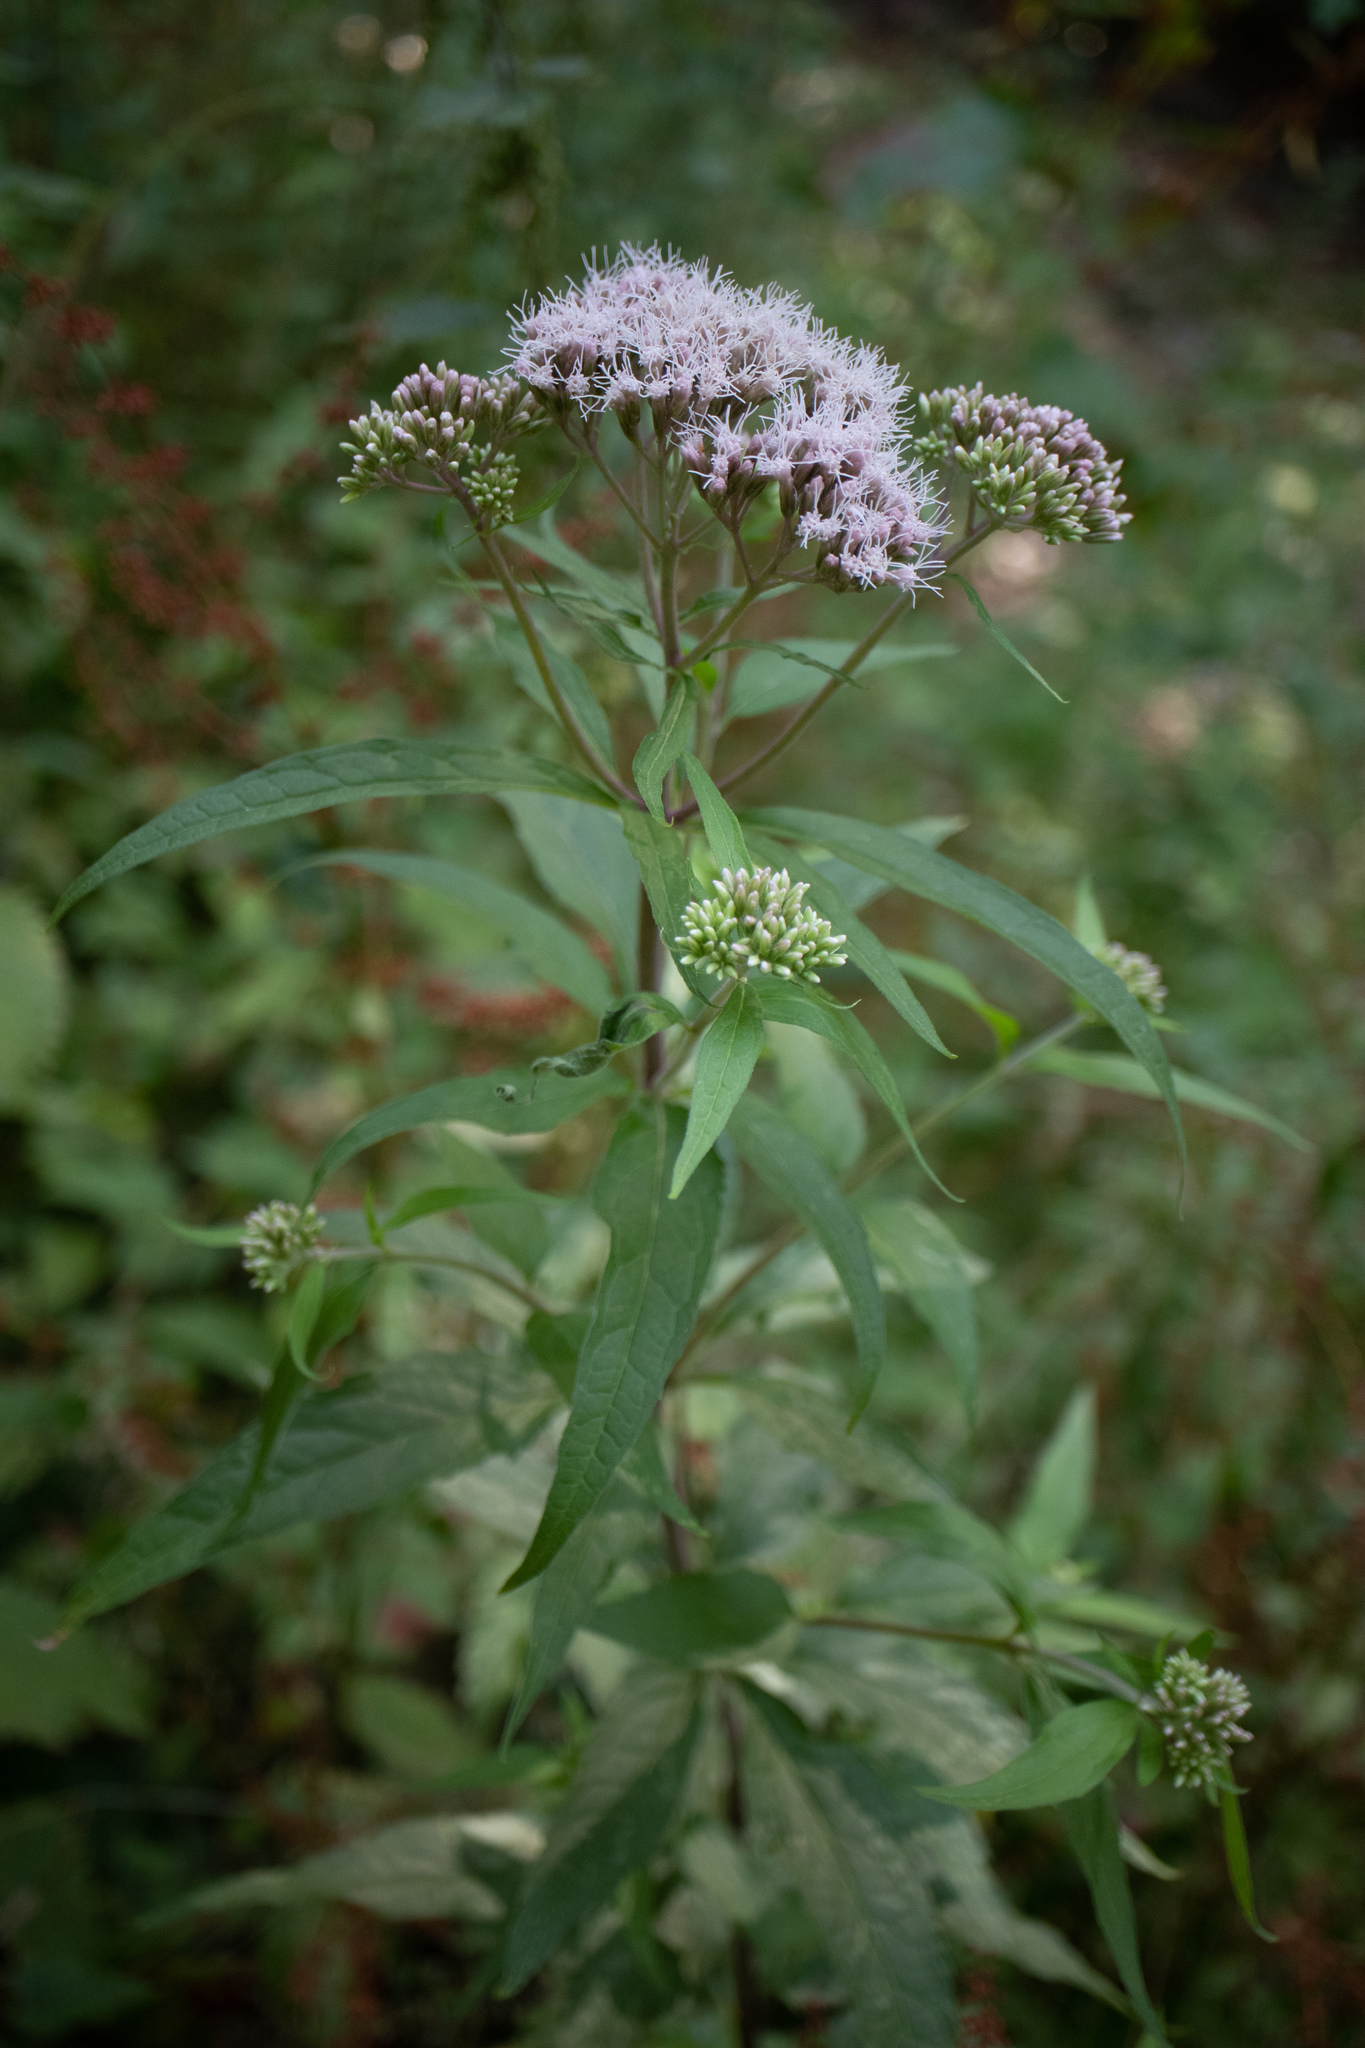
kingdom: Plantae
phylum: Tracheophyta
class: Magnoliopsida
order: Asterales
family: Asteraceae
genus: Eupatorium
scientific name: Eupatorium cannabinum
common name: Hemp-agrimony
